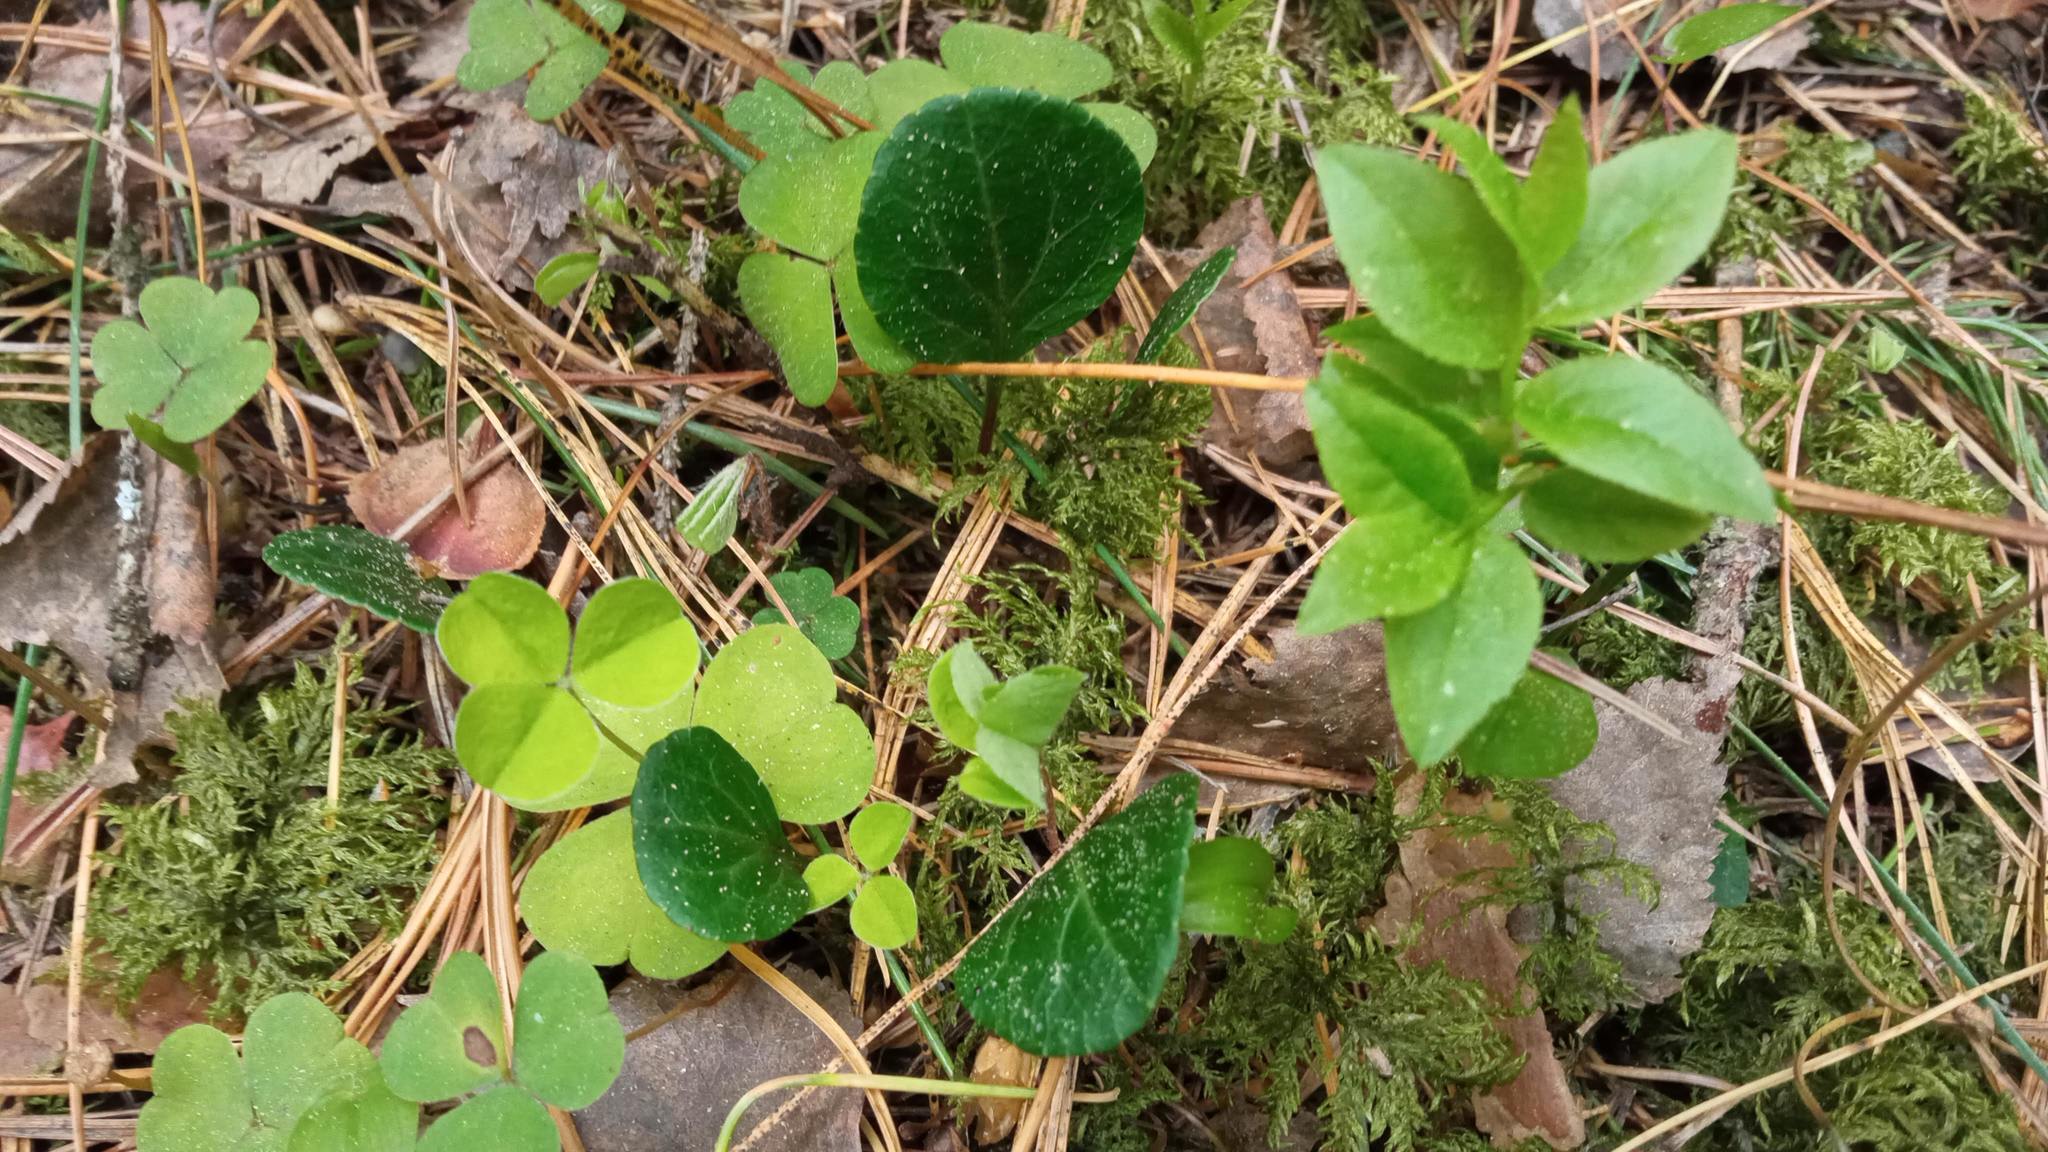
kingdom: Plantae
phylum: Tracheophyta
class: Magnoliopsida
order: Ericales
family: Ericaceae
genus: Pyrola
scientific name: Pyrola chlorantha
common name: Green wintergreen
